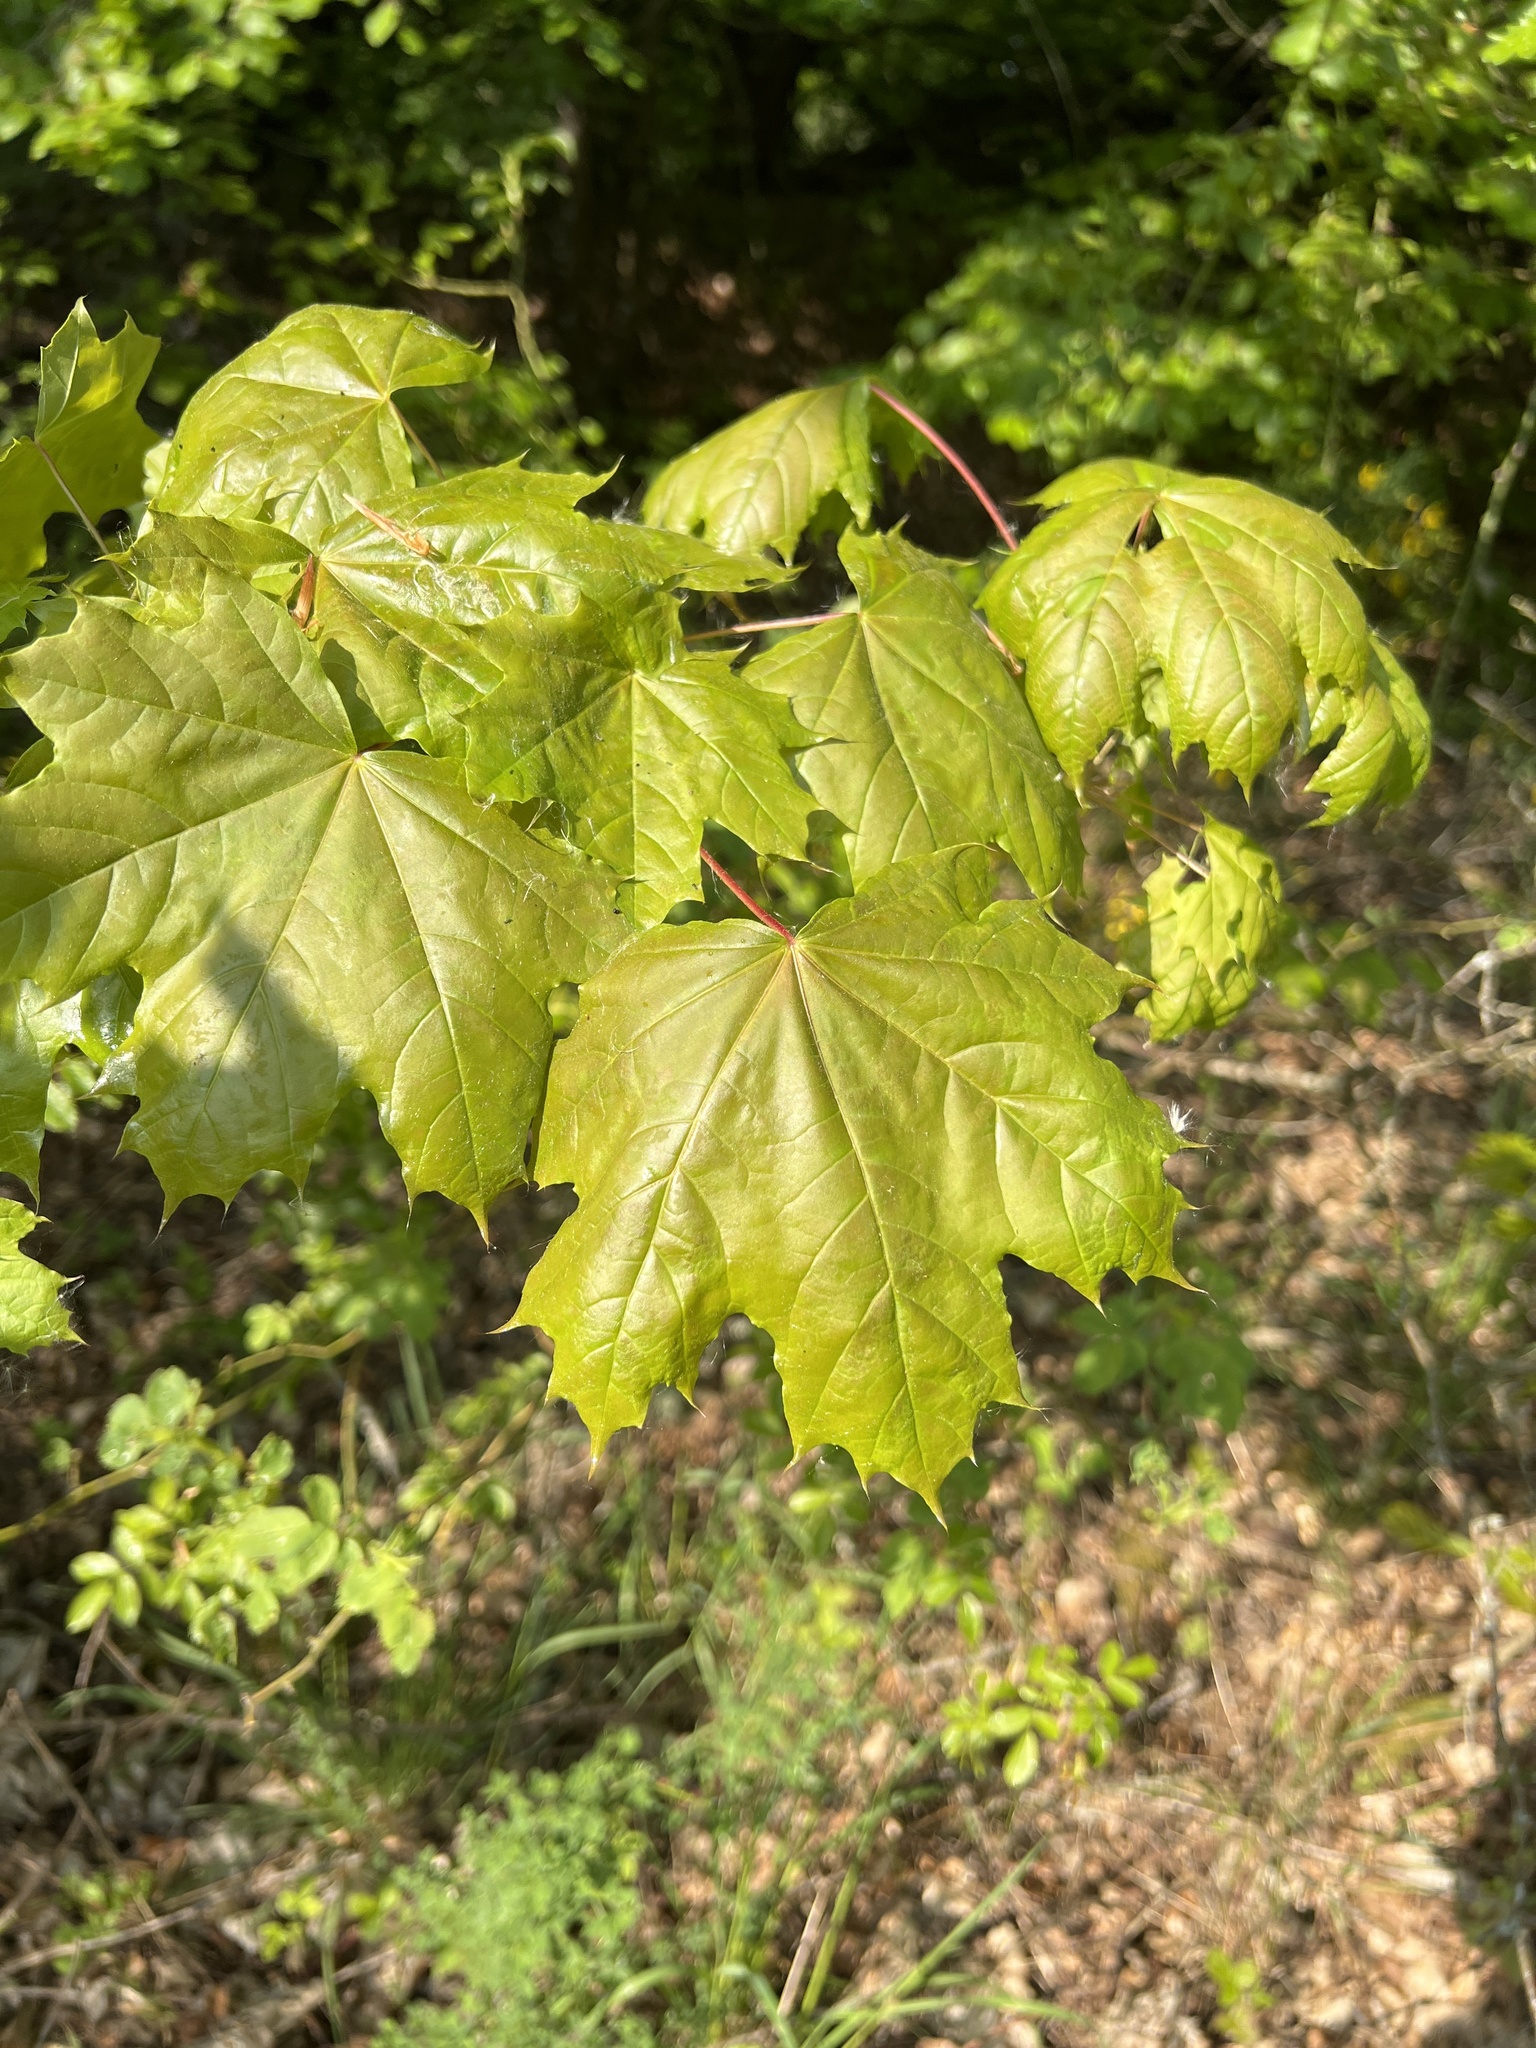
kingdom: Plantae
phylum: Tracheophyta
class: Magnoliopsida
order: Sapindales
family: Sapindaceae
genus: Acer
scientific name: Acer platanoides
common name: Norway maple
